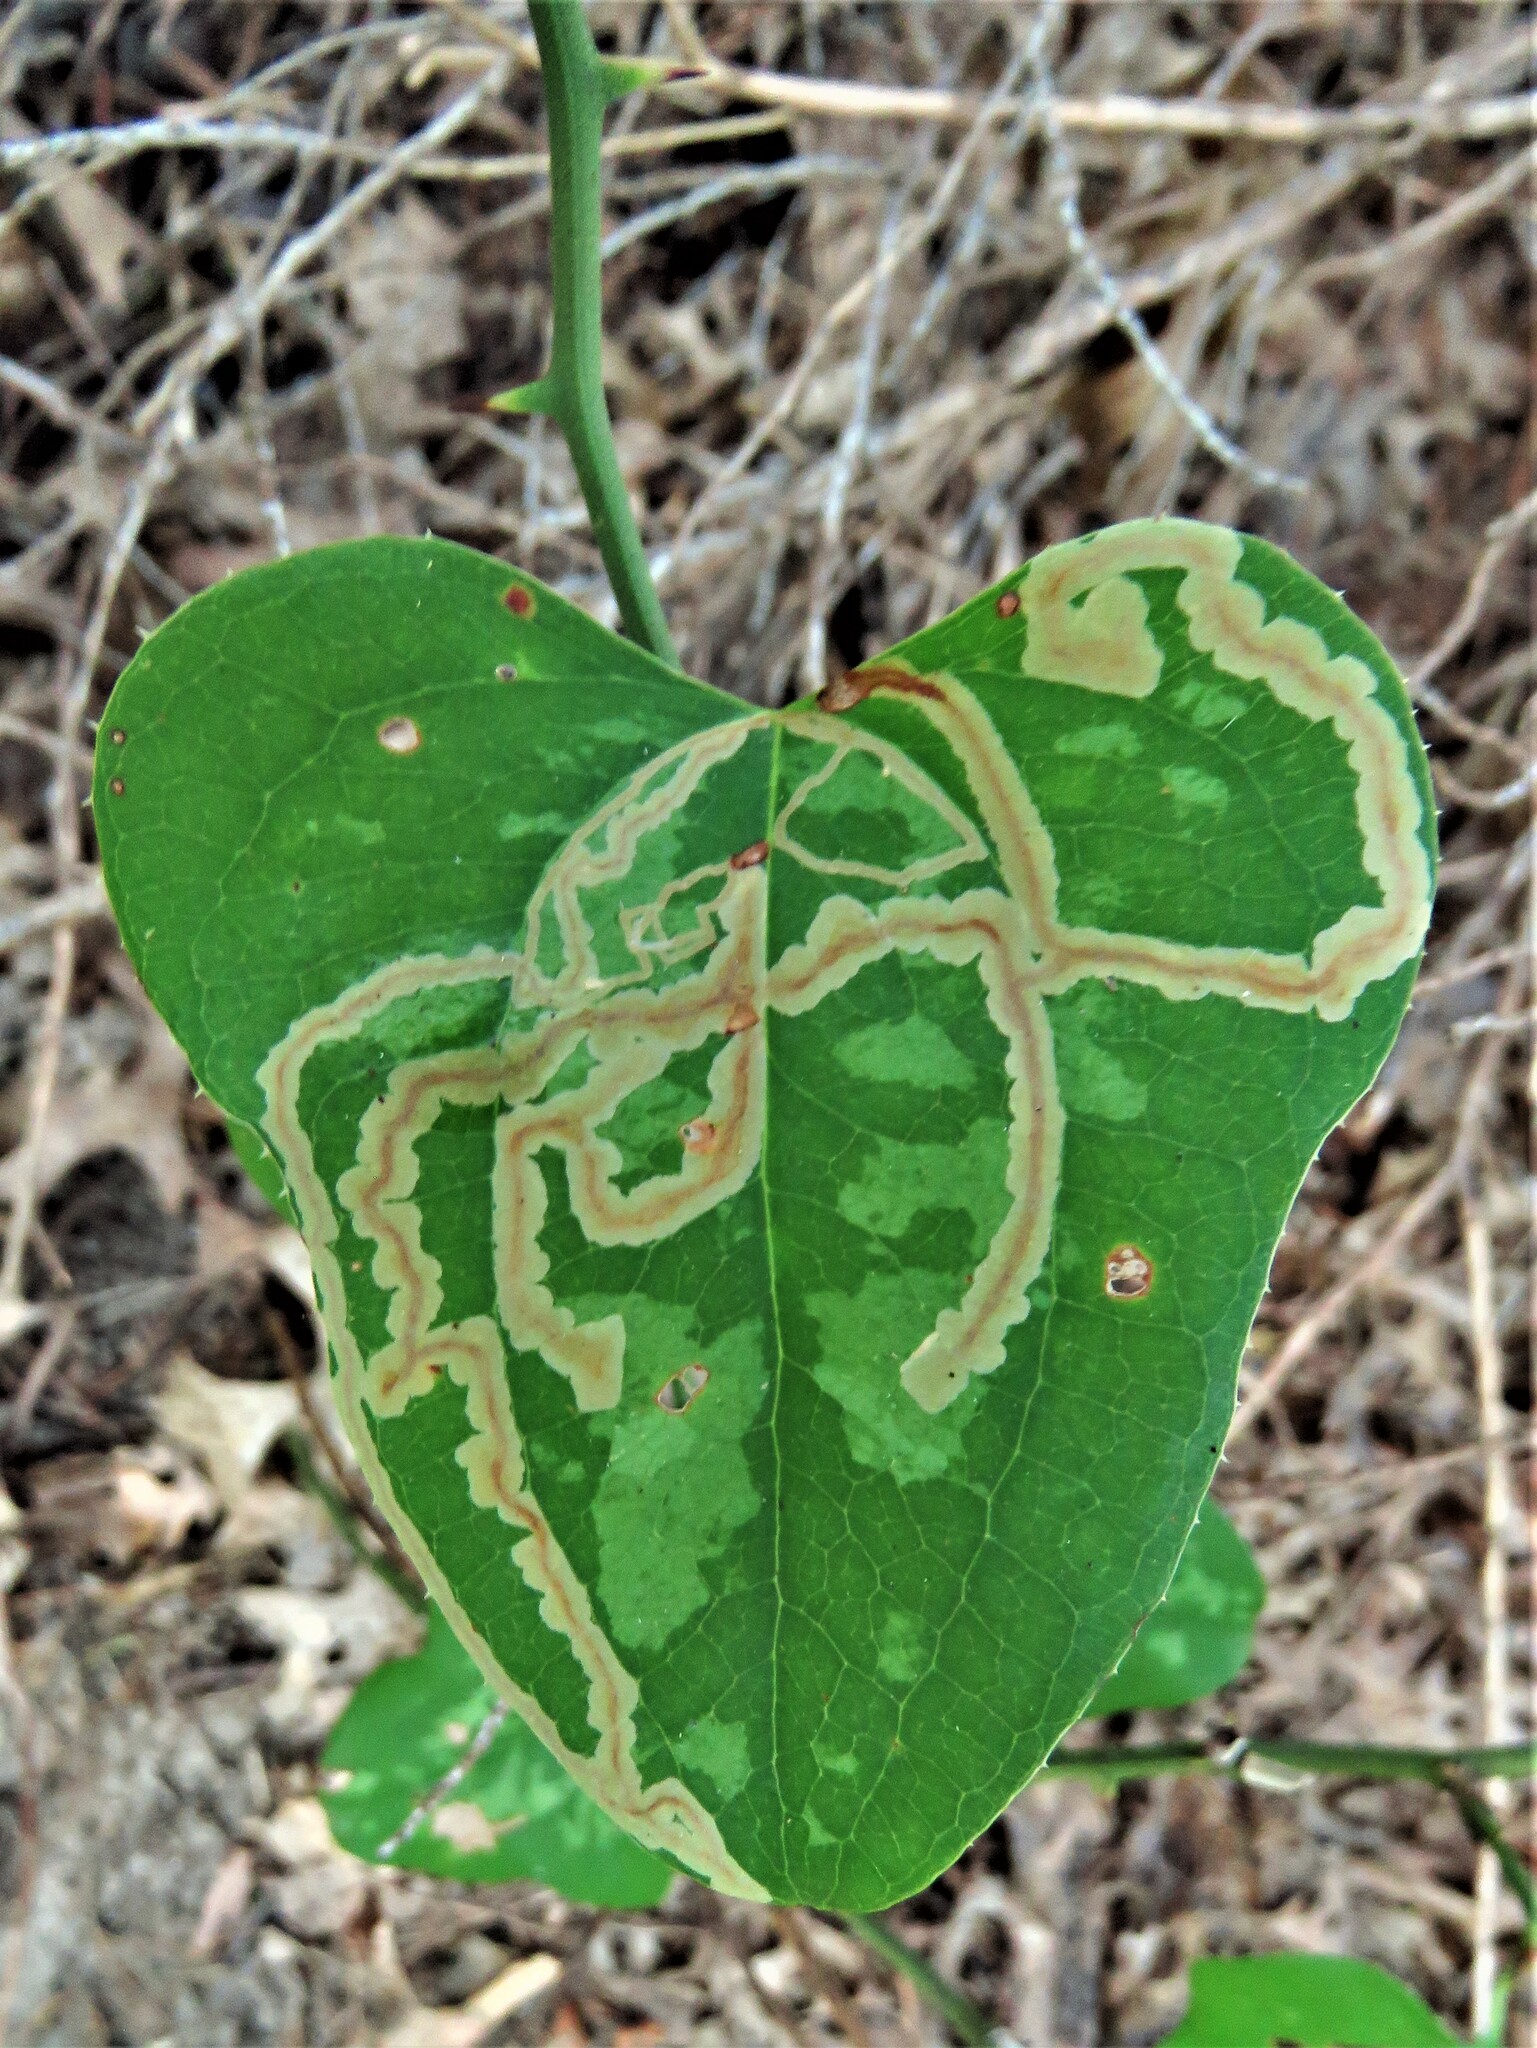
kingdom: Animalia
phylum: Arthropoda
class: Insecta
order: Lepidoptera
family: Gracillariidae
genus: Marmara
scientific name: Marmara smilacisella
